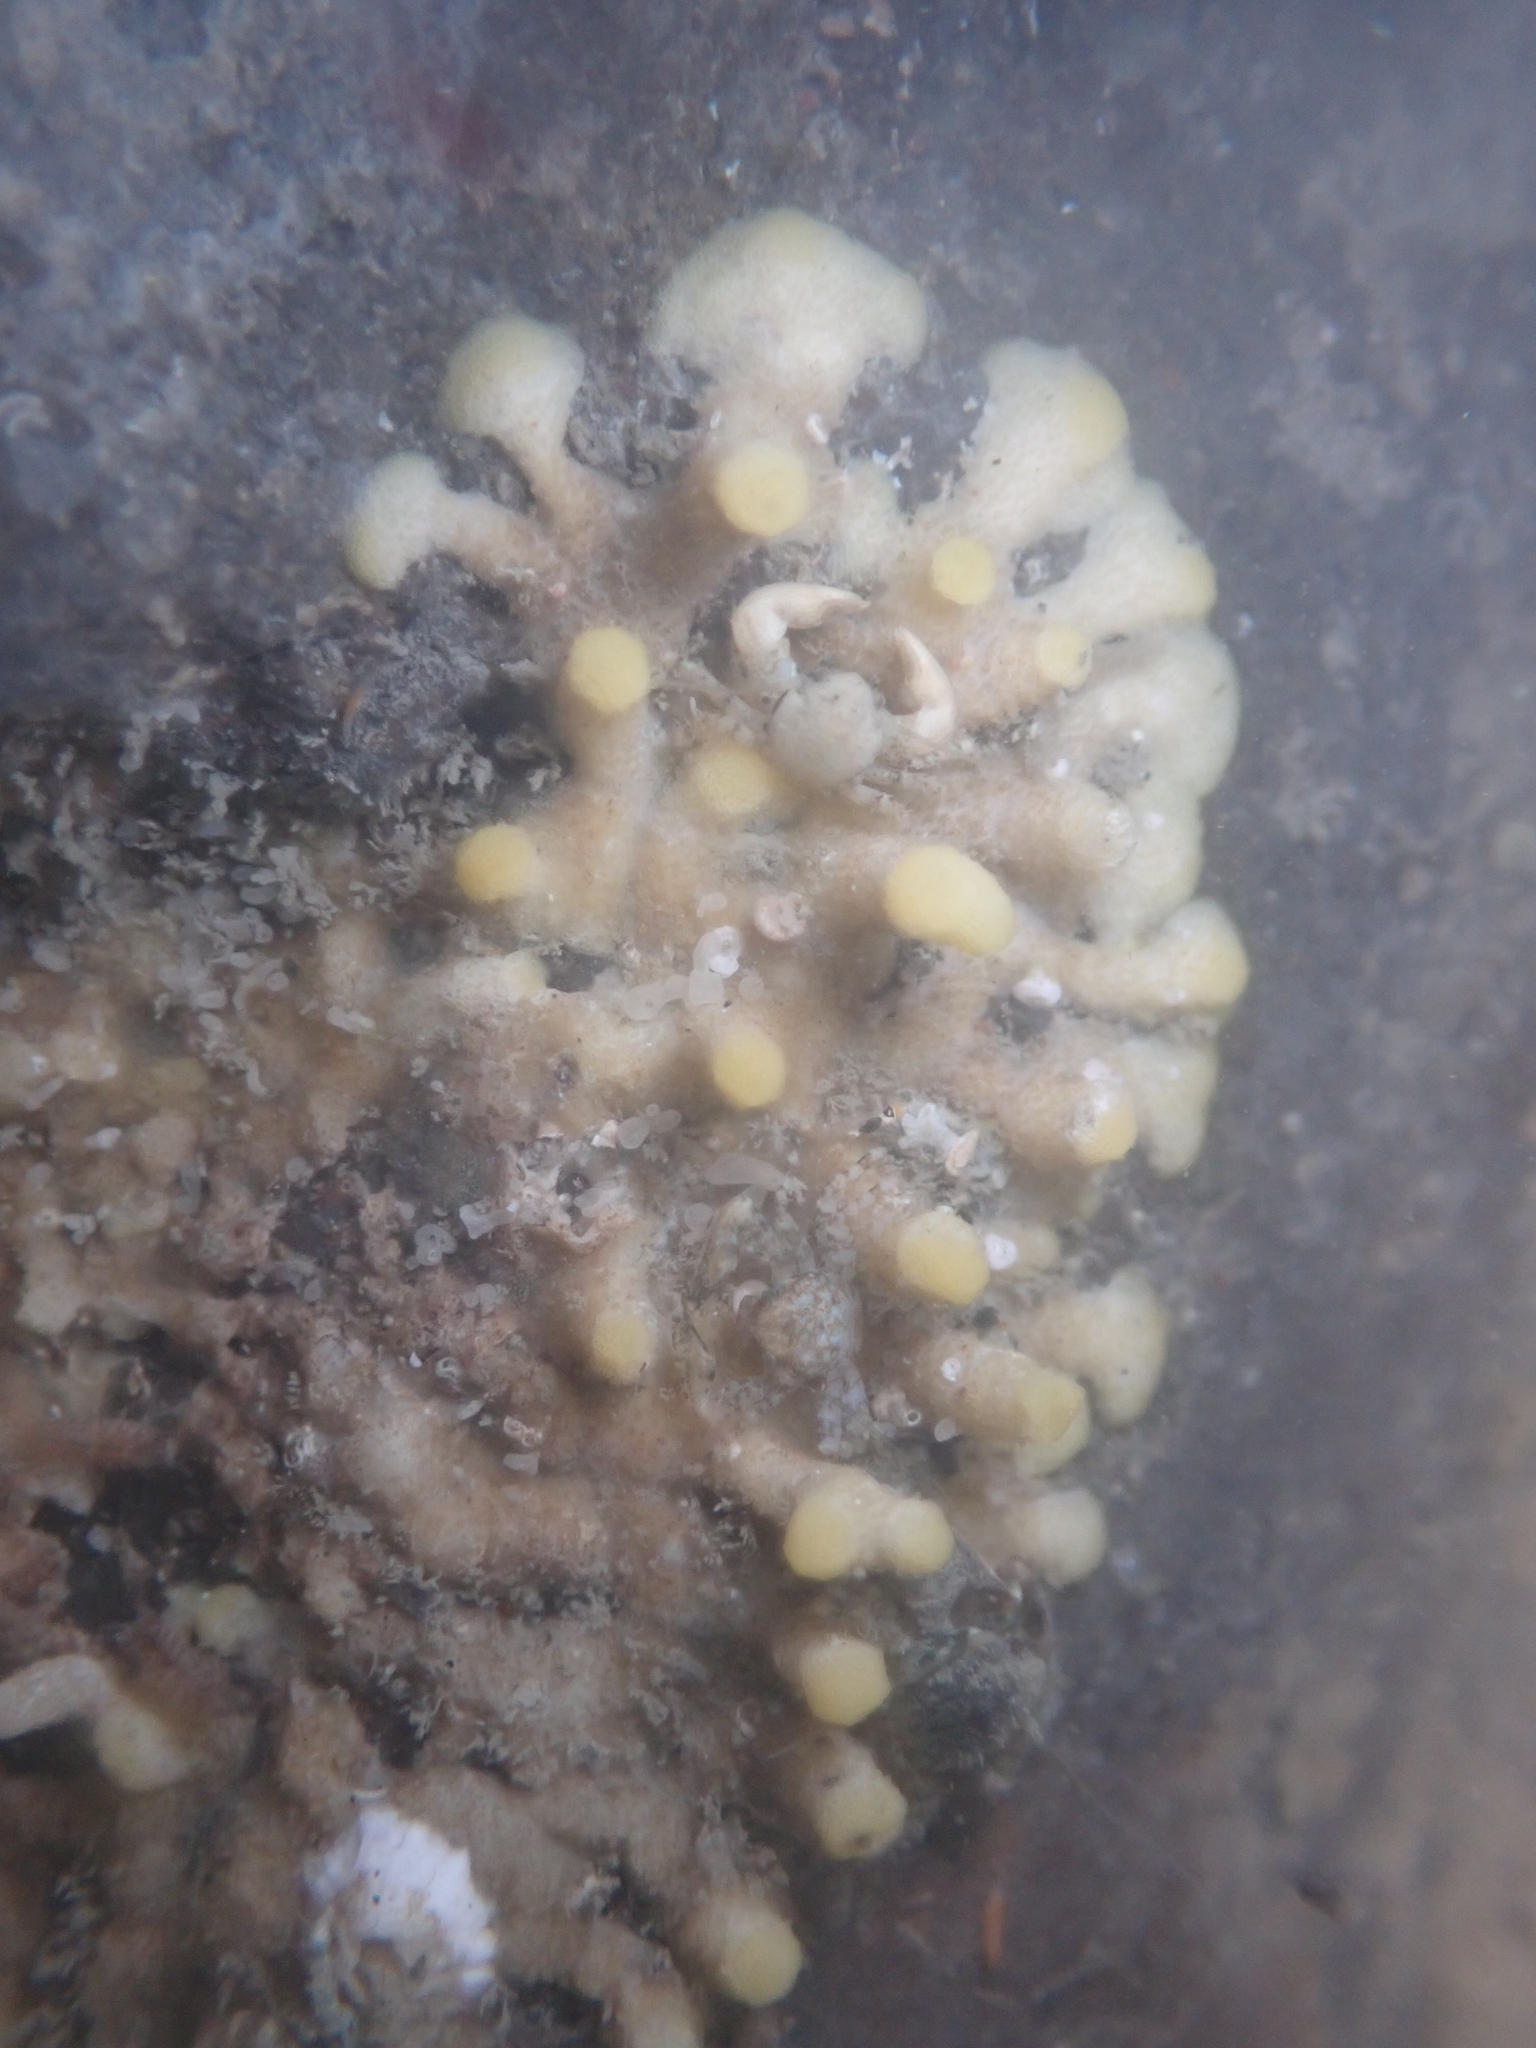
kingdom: Animalia
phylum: Bryozoa
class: Stenolaemata
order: Cyclostomatida
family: Heteroporidae
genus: Heteropora
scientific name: Heteropora pacifica
